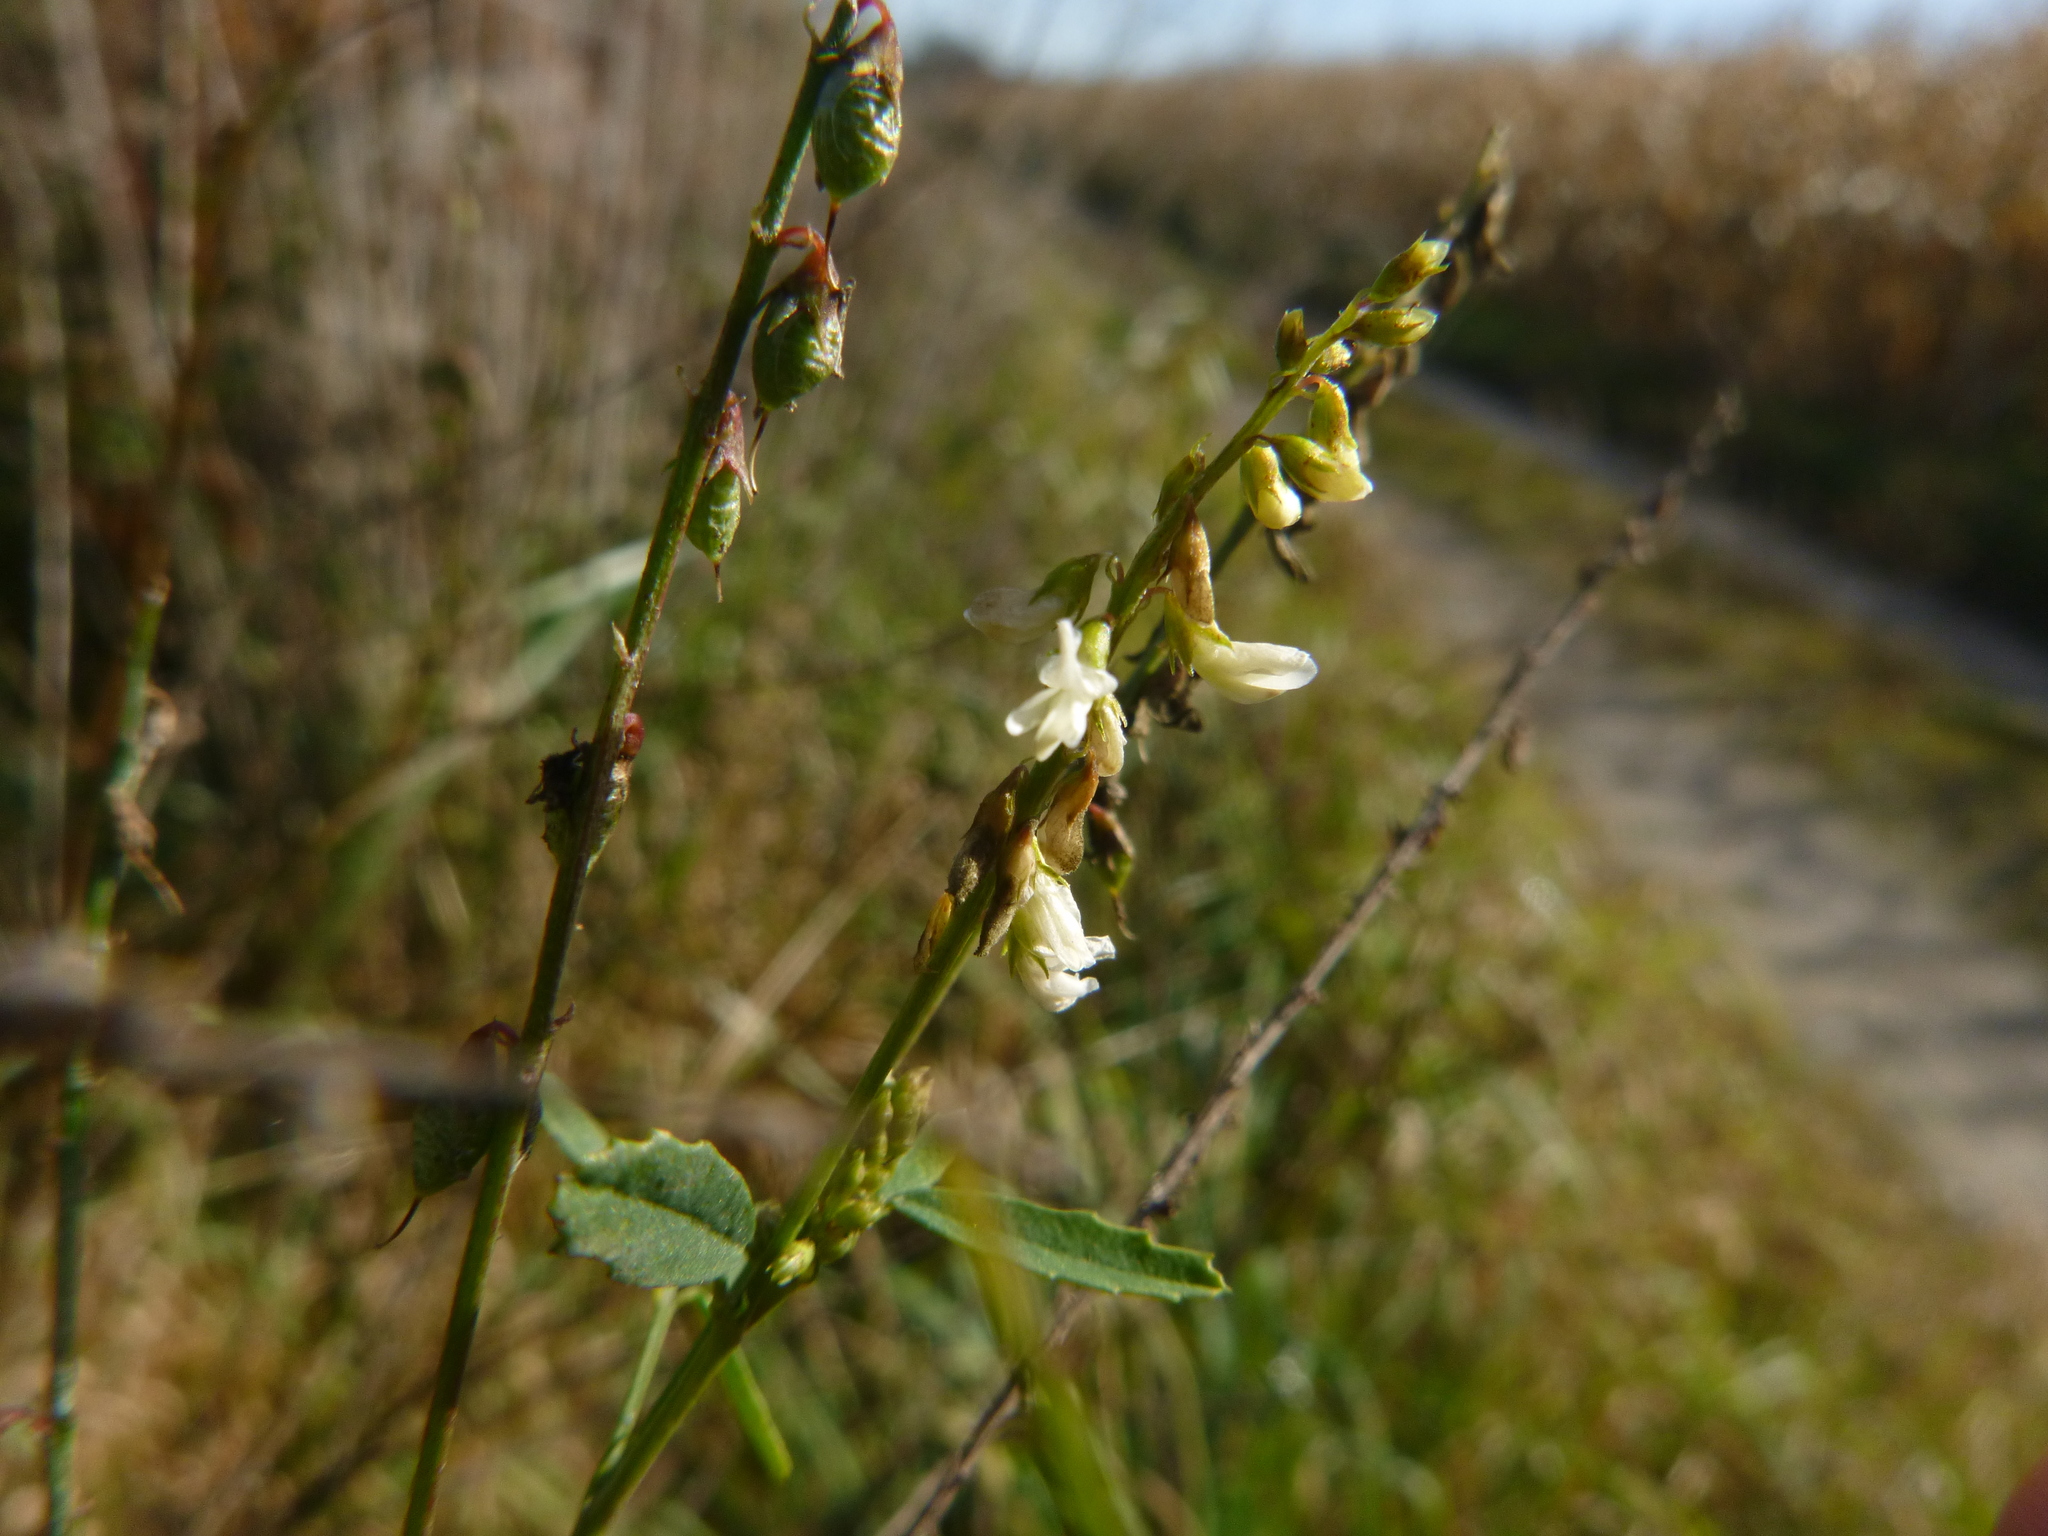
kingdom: Plantae
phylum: Tracheophyta
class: Magnoliopsida
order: Fabales
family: Fabaceae
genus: Melilotus
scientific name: Melilotus albus
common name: White melilot
